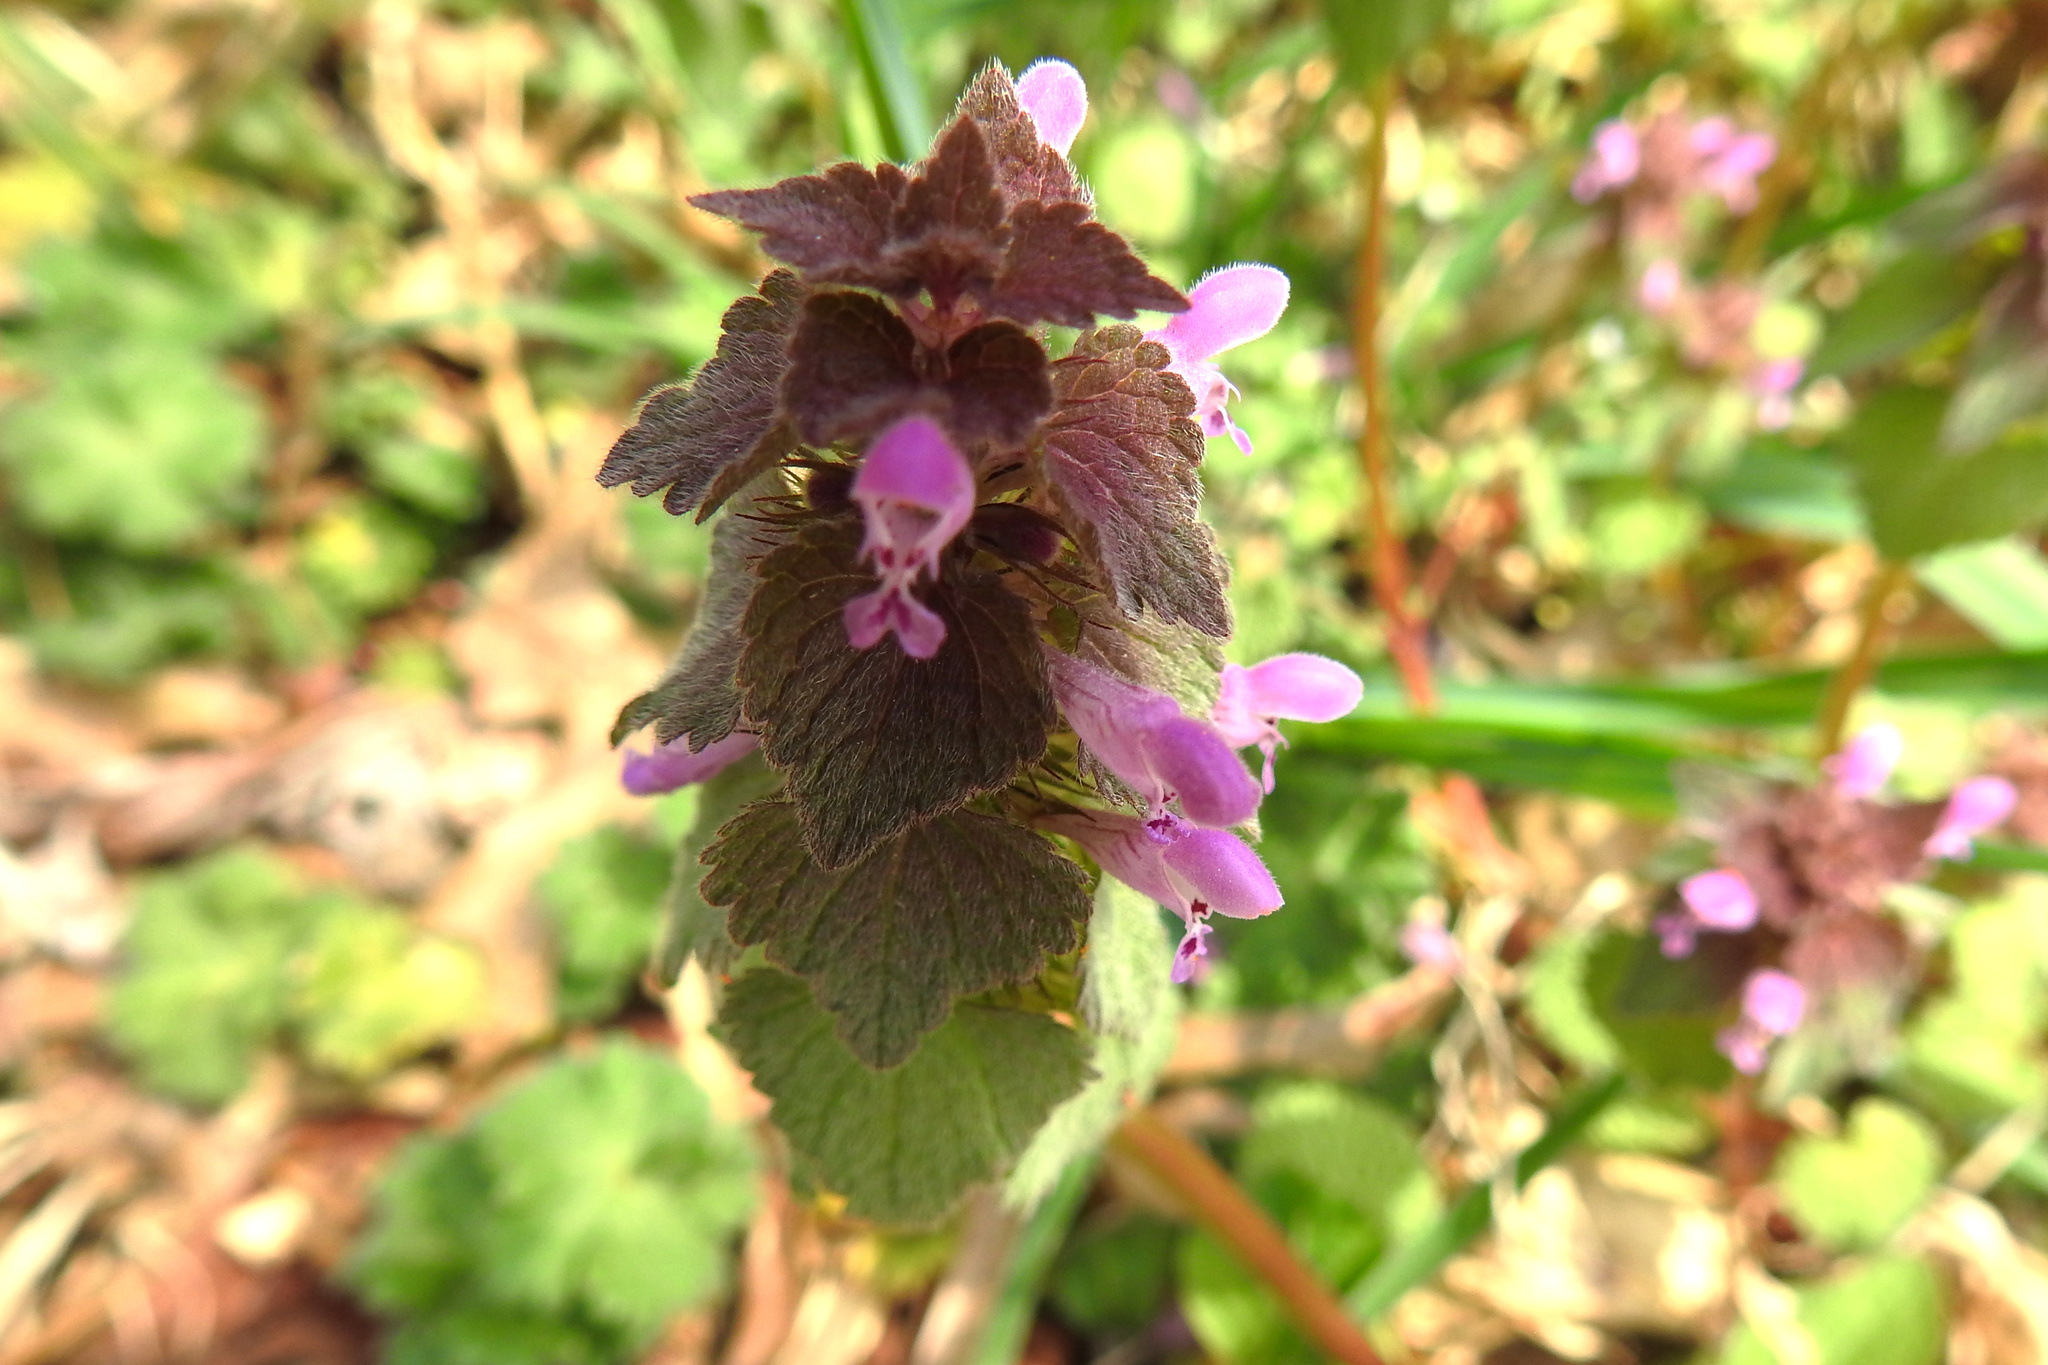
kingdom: Plantae
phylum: Tracheophyta
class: Magnoliopsida
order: Lamiales
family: Lamiaceae
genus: Lamium
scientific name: Lamium purpureum
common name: Red dead-nettle
